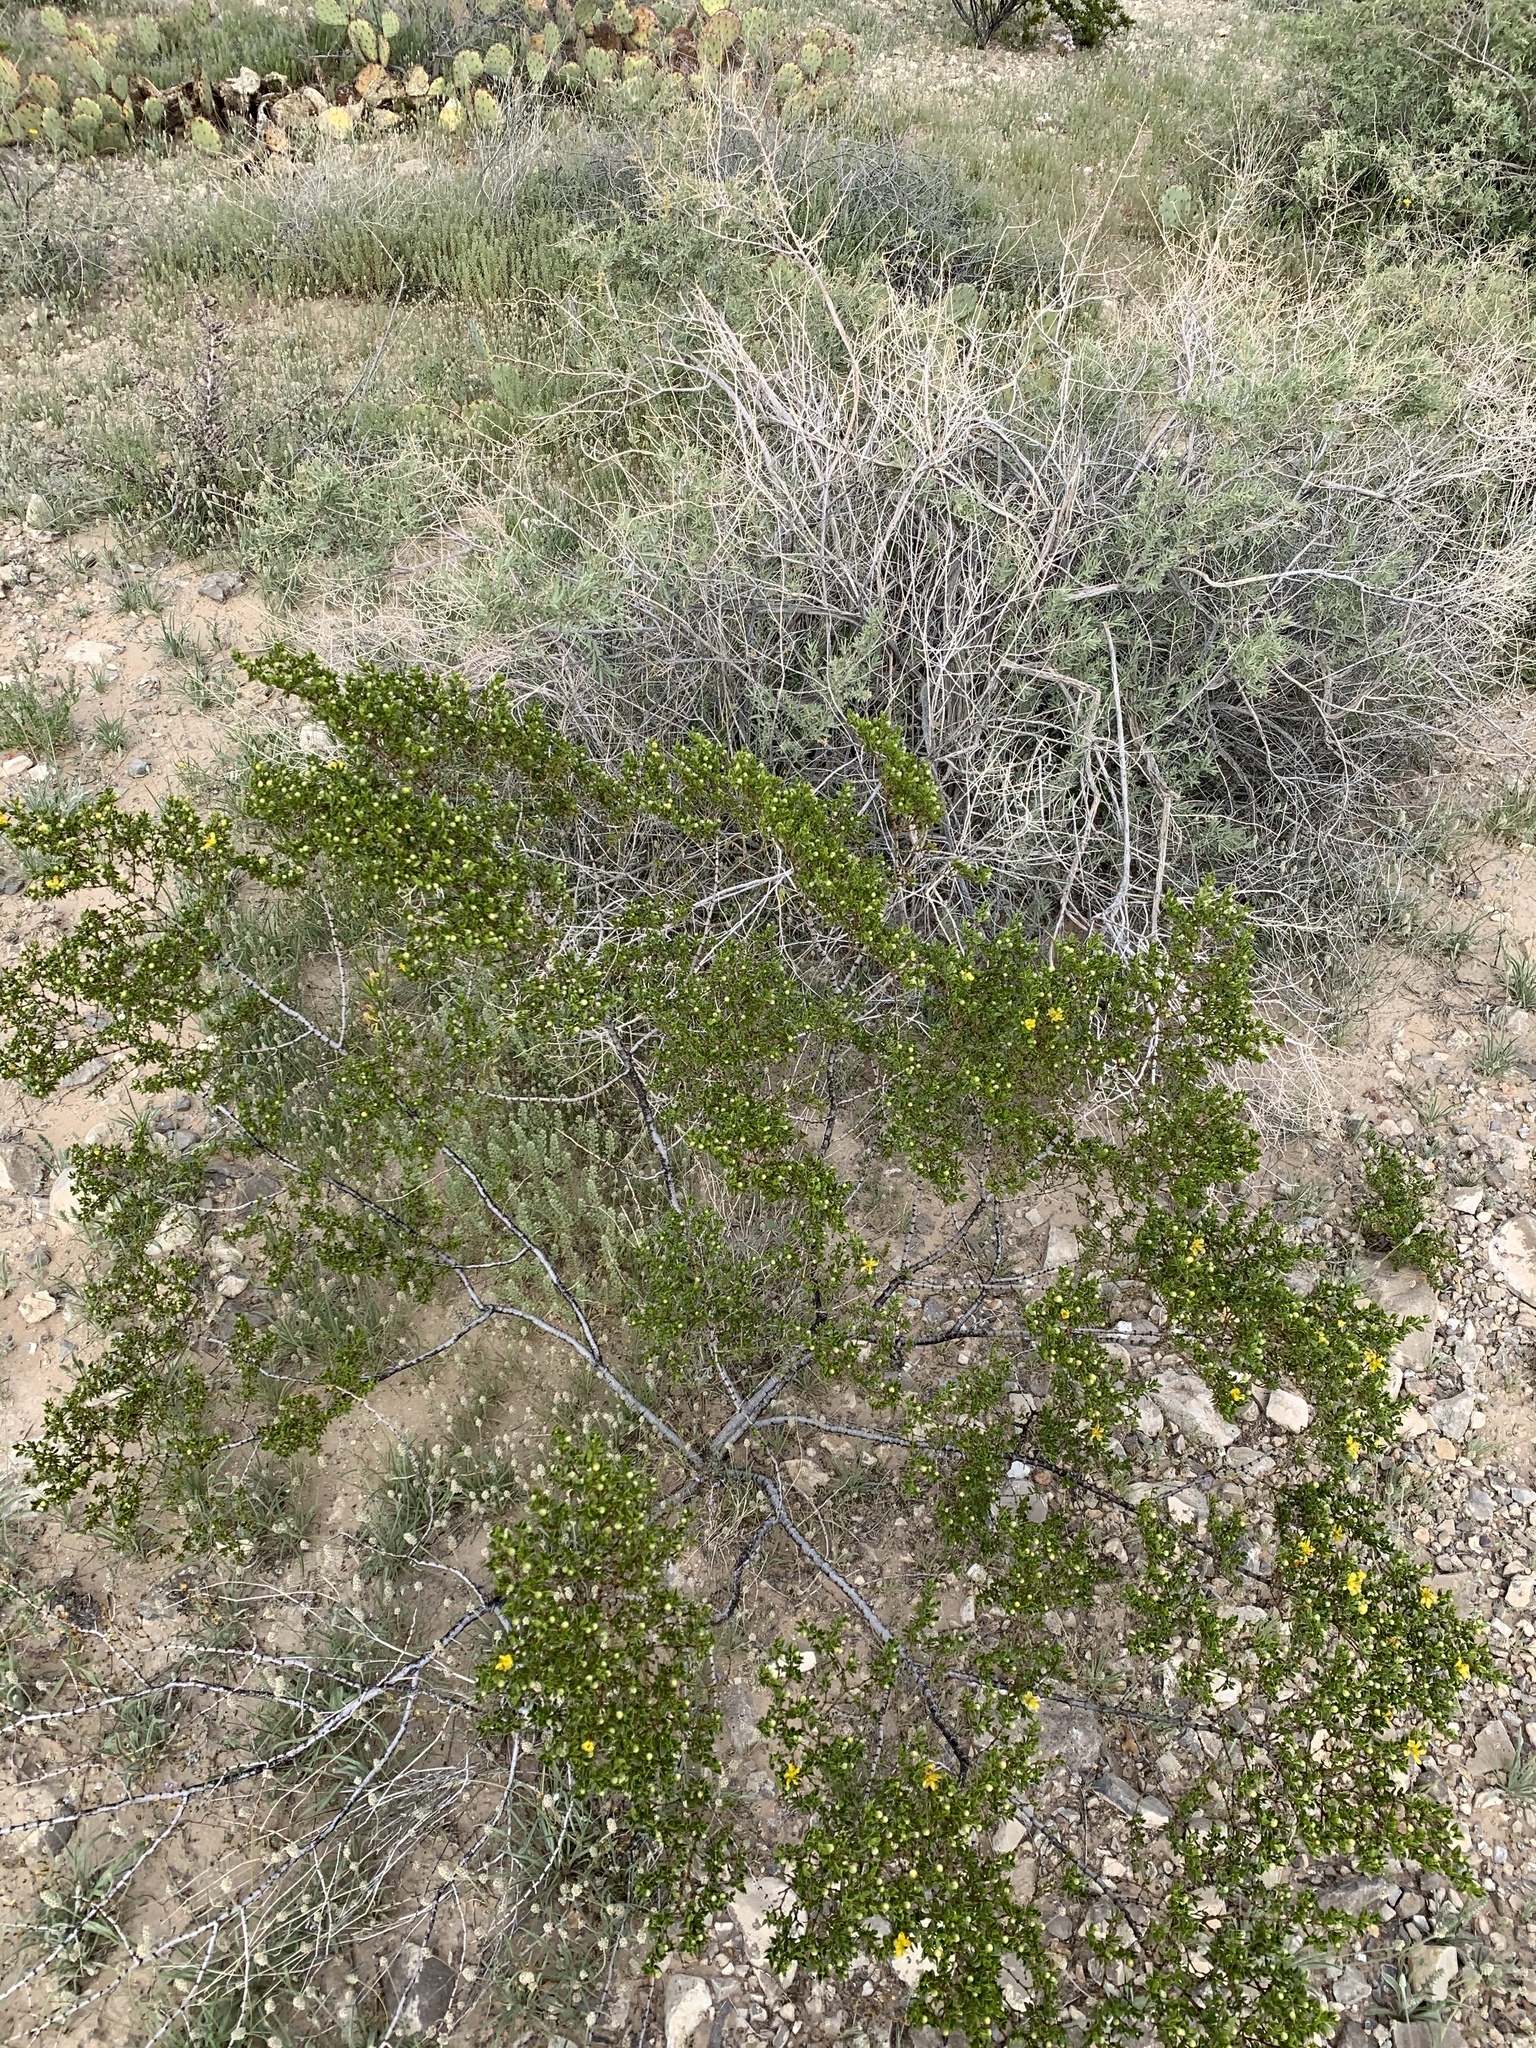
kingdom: Plantae
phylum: Tracheophyta
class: Magnoliopsida
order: Zygophyllales
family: Zygophyllaceae
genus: Larrea
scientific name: Larrea tridentata
